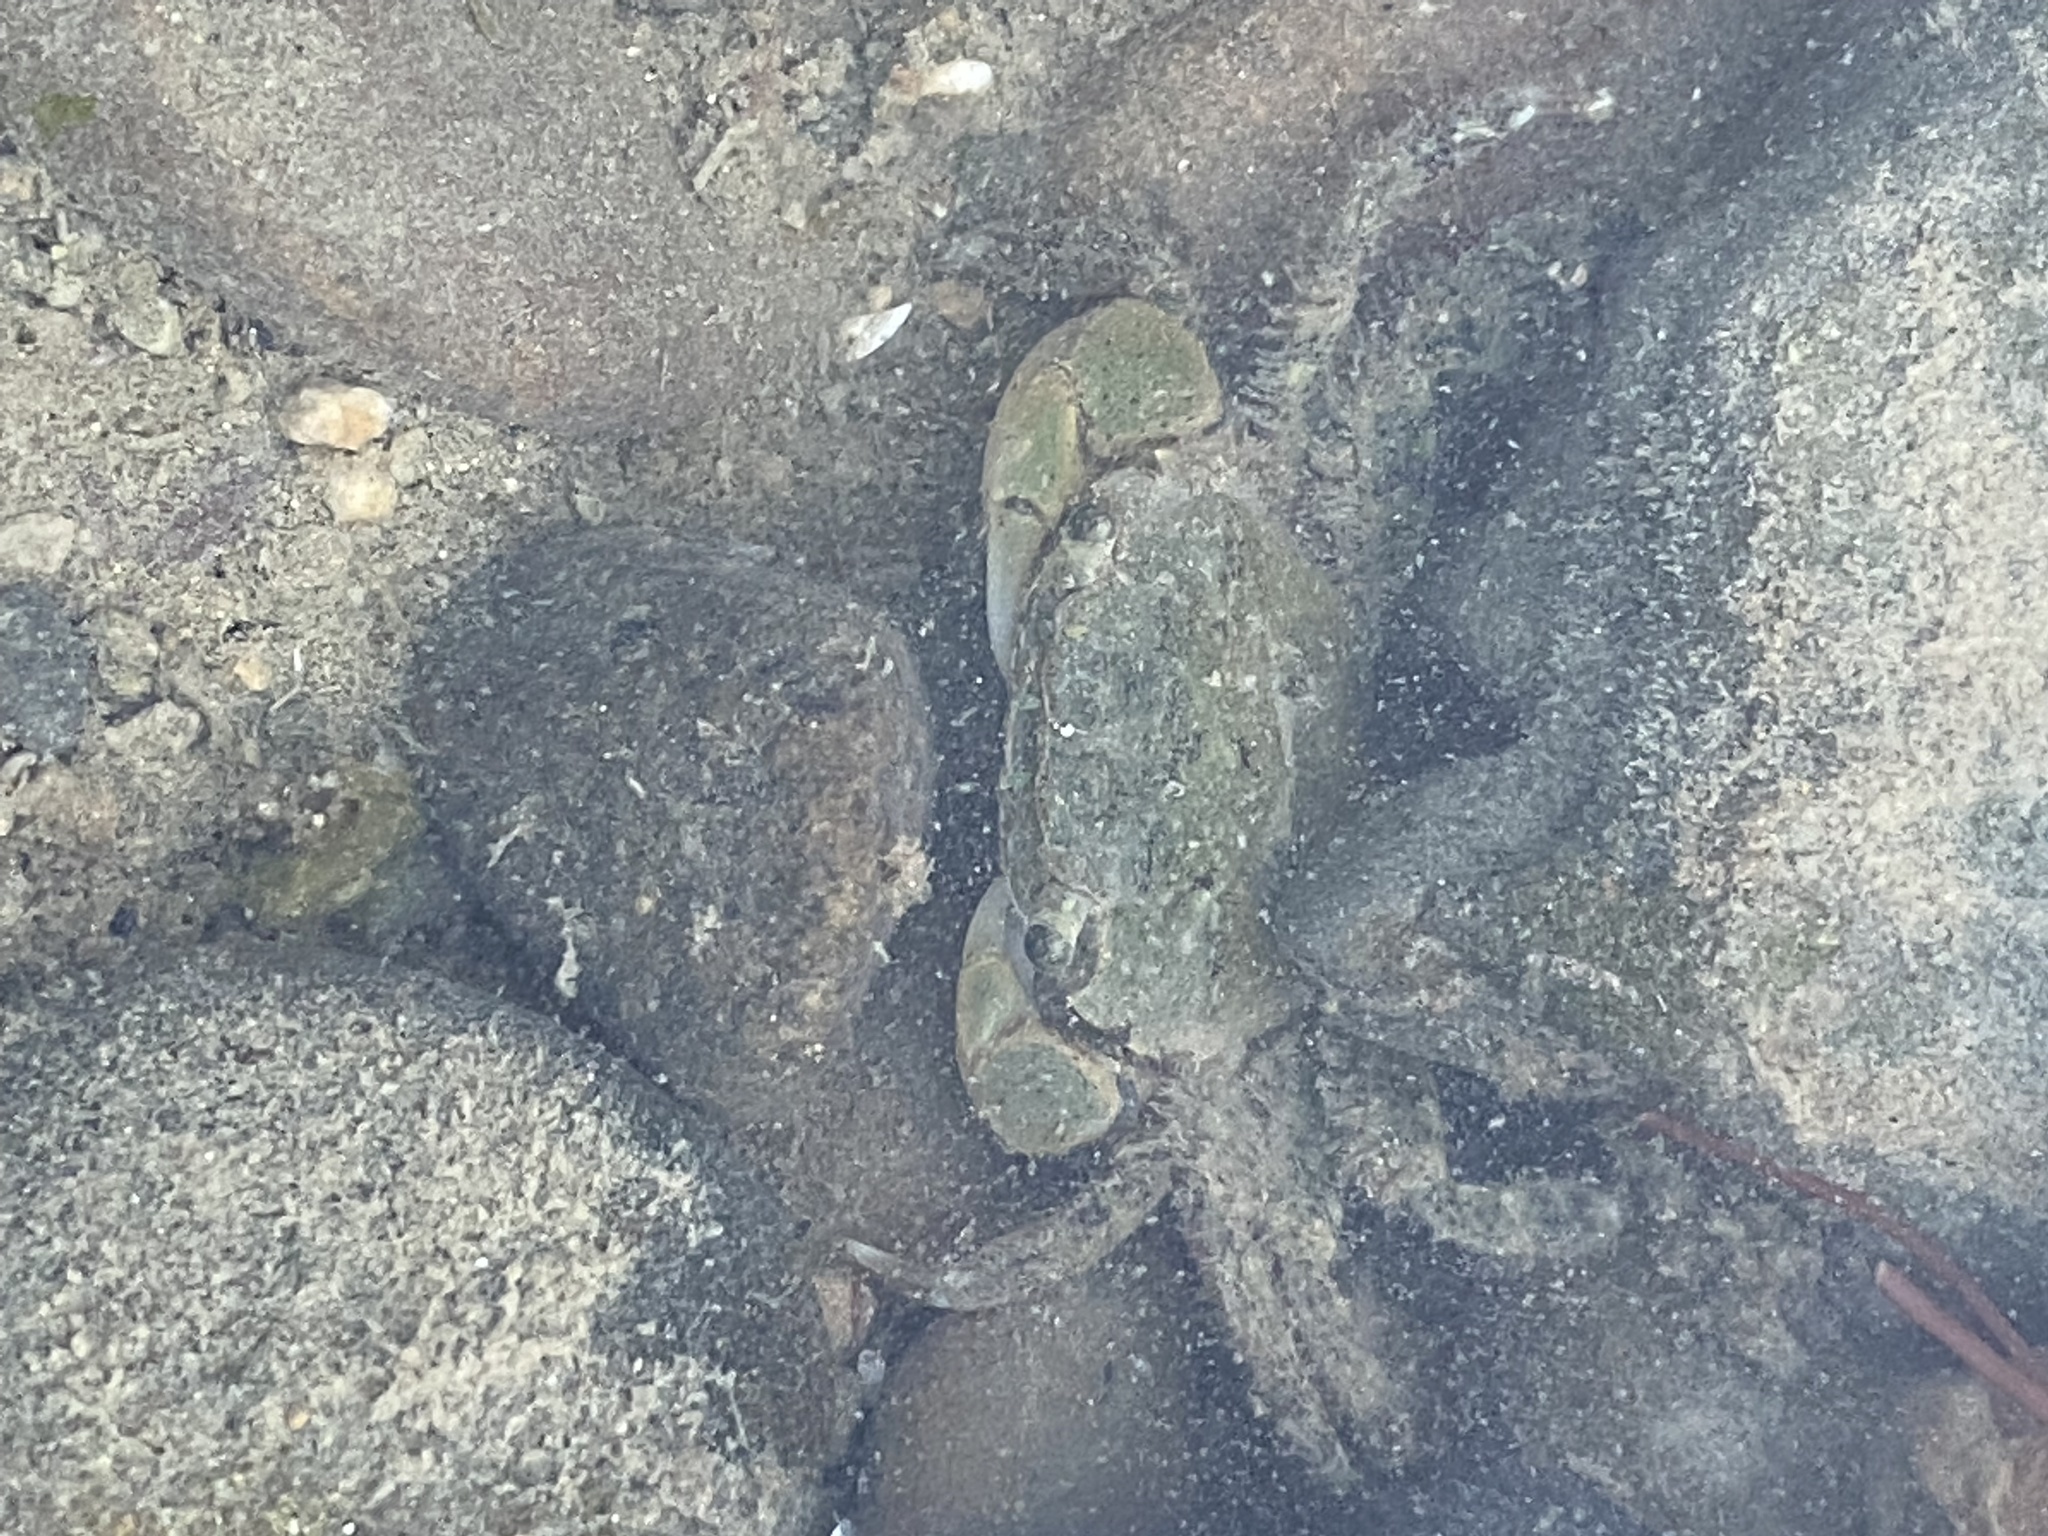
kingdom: Animalia
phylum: Arthropoda
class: Malacostraca
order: Decapoda
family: Varunidae
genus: Hemigrapsus
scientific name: Hemigrapsus oregonensis
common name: Yellow shore crab
